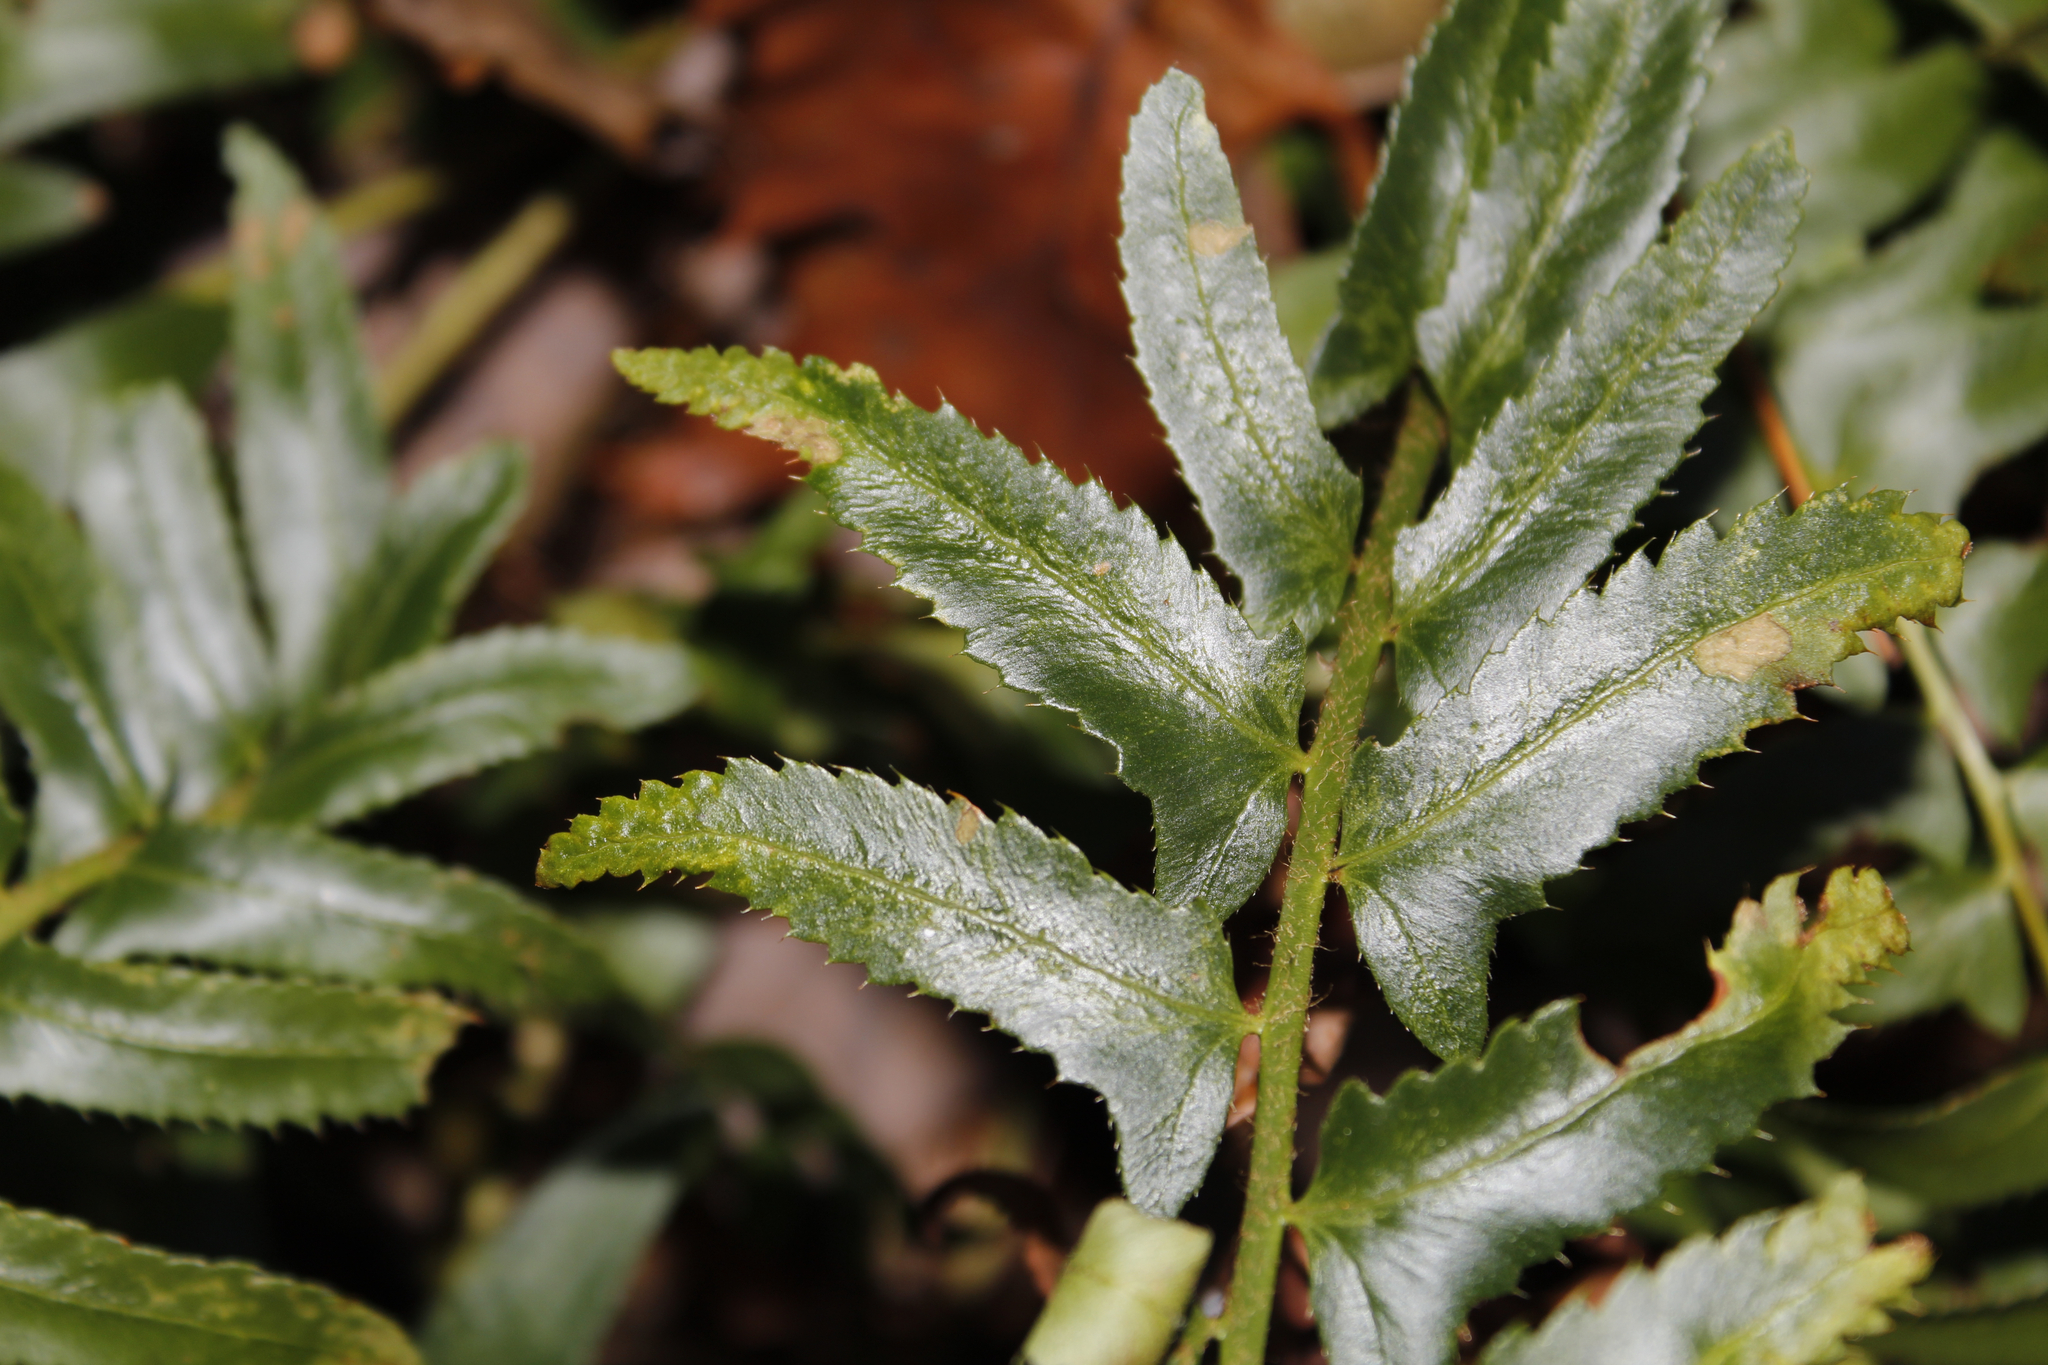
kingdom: Plantae
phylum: Tracheophyta
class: Polypodiopsida
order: Polypodiales
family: Dryopteridaceae
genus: Polystichum
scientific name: Polystichum acrostichoides
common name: Christmas fern
